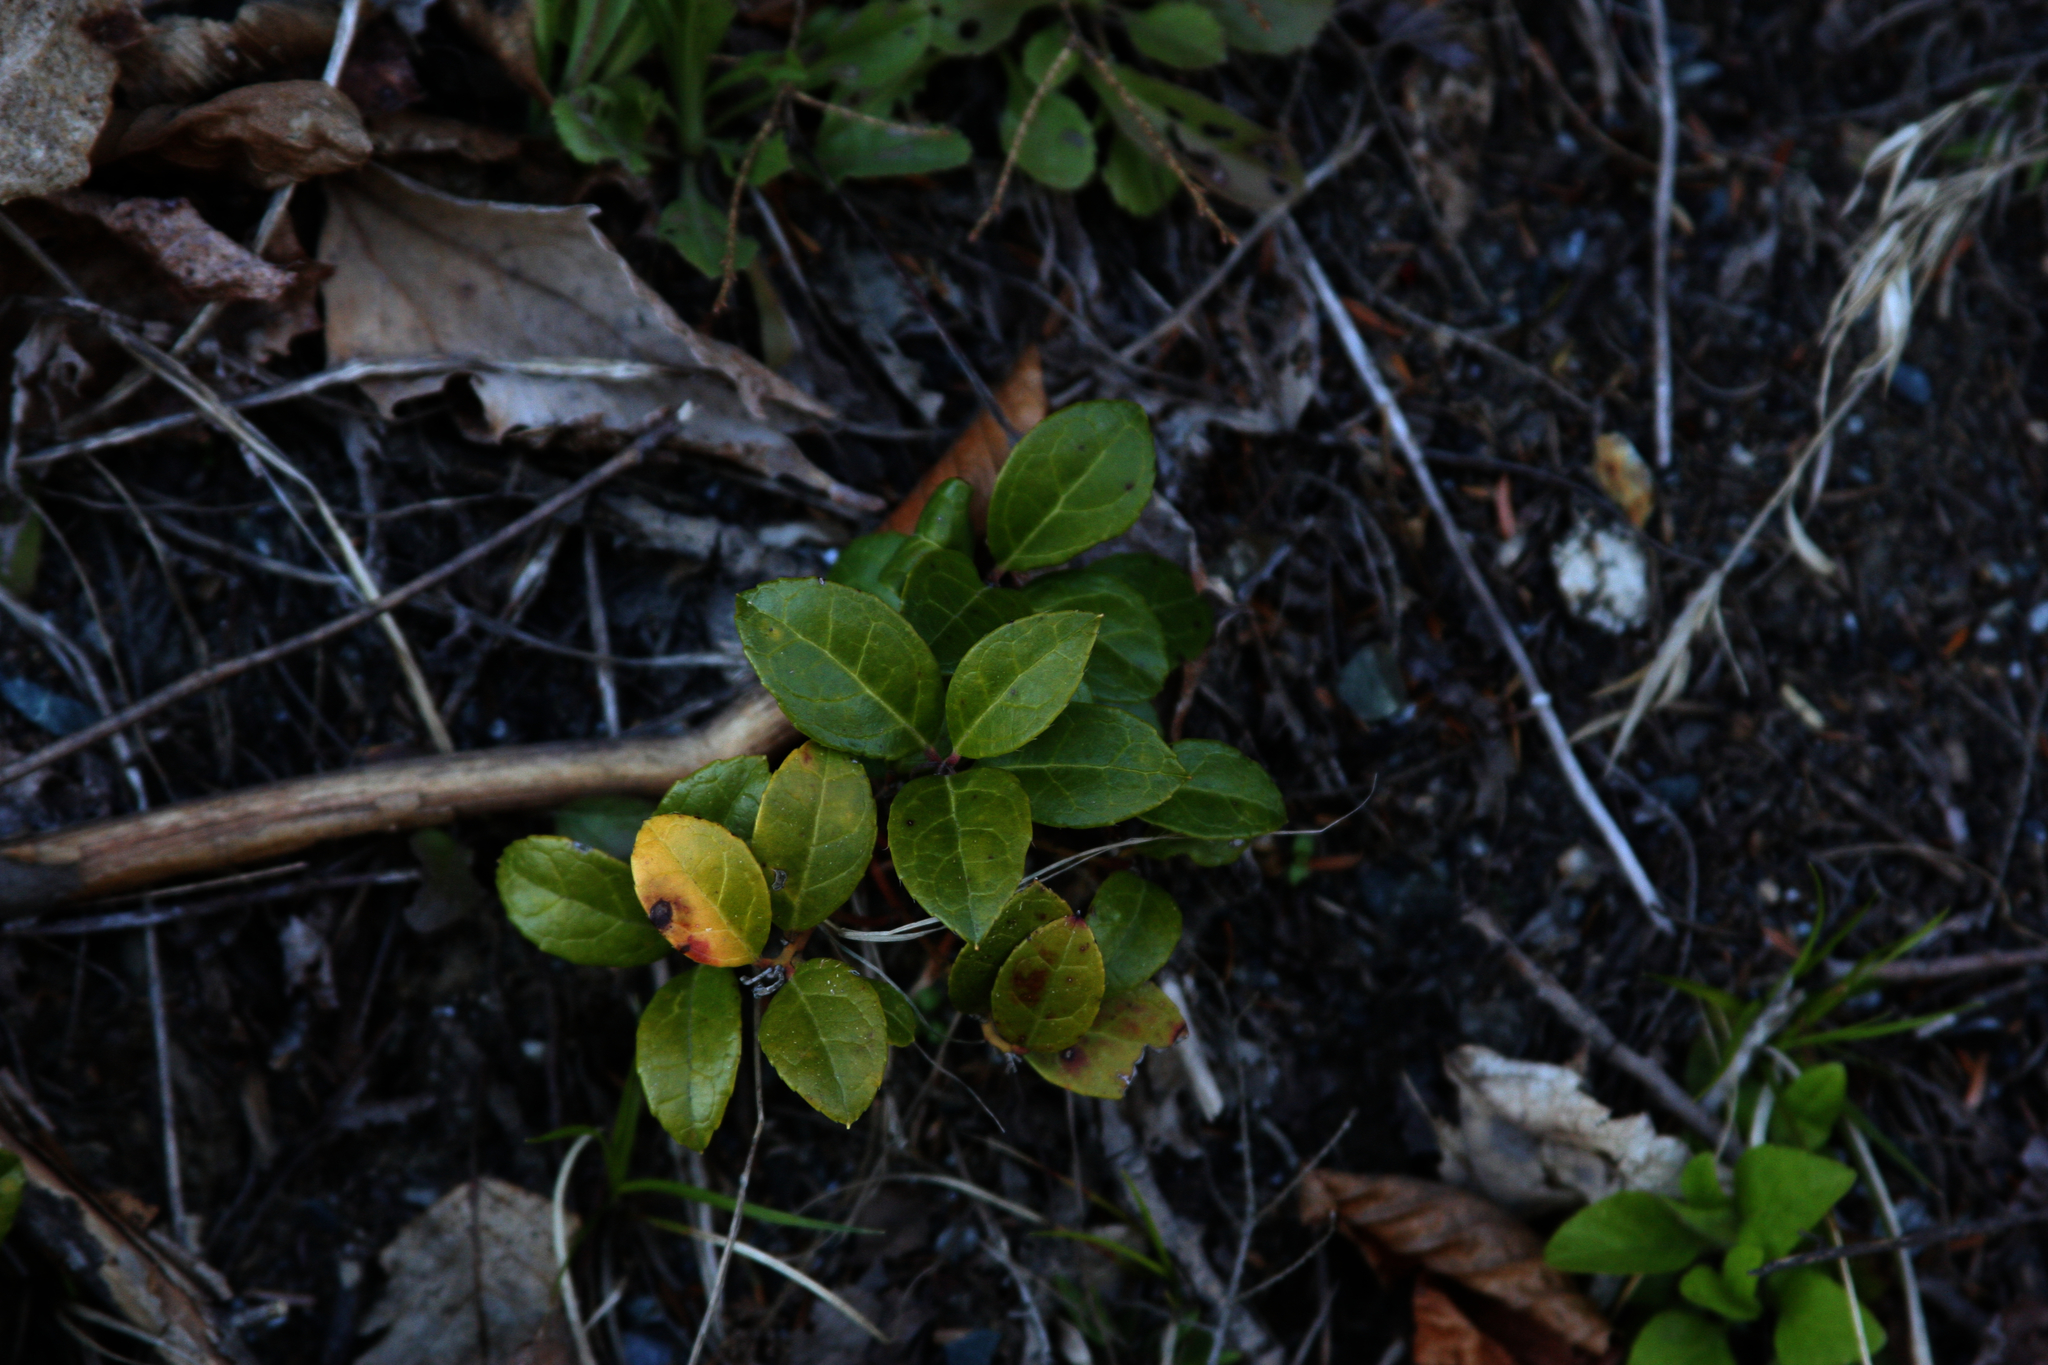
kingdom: Plantae
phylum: Tracheophyta
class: Magnoliopsida
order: Ericales
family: Ericaceae
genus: Gaultheria
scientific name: Gaultheria procumbens
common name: Checkerberry
